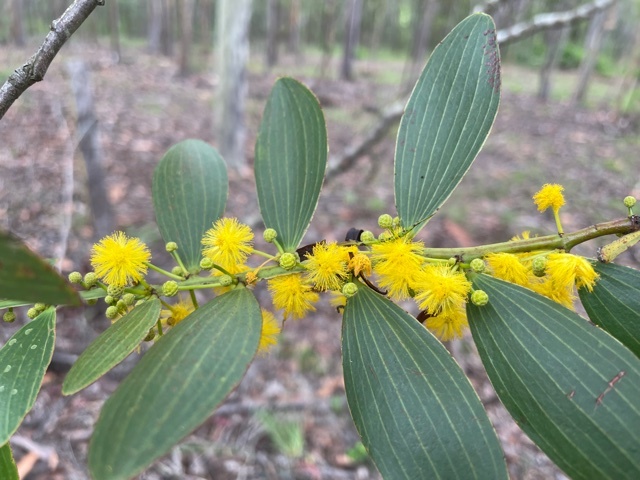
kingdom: Plantae
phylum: Tracheophyta
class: Magnoliopsida
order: Fabales
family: Fabaceae
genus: Acacia
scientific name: Acacia complanata
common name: Flat-stemmed wattle
